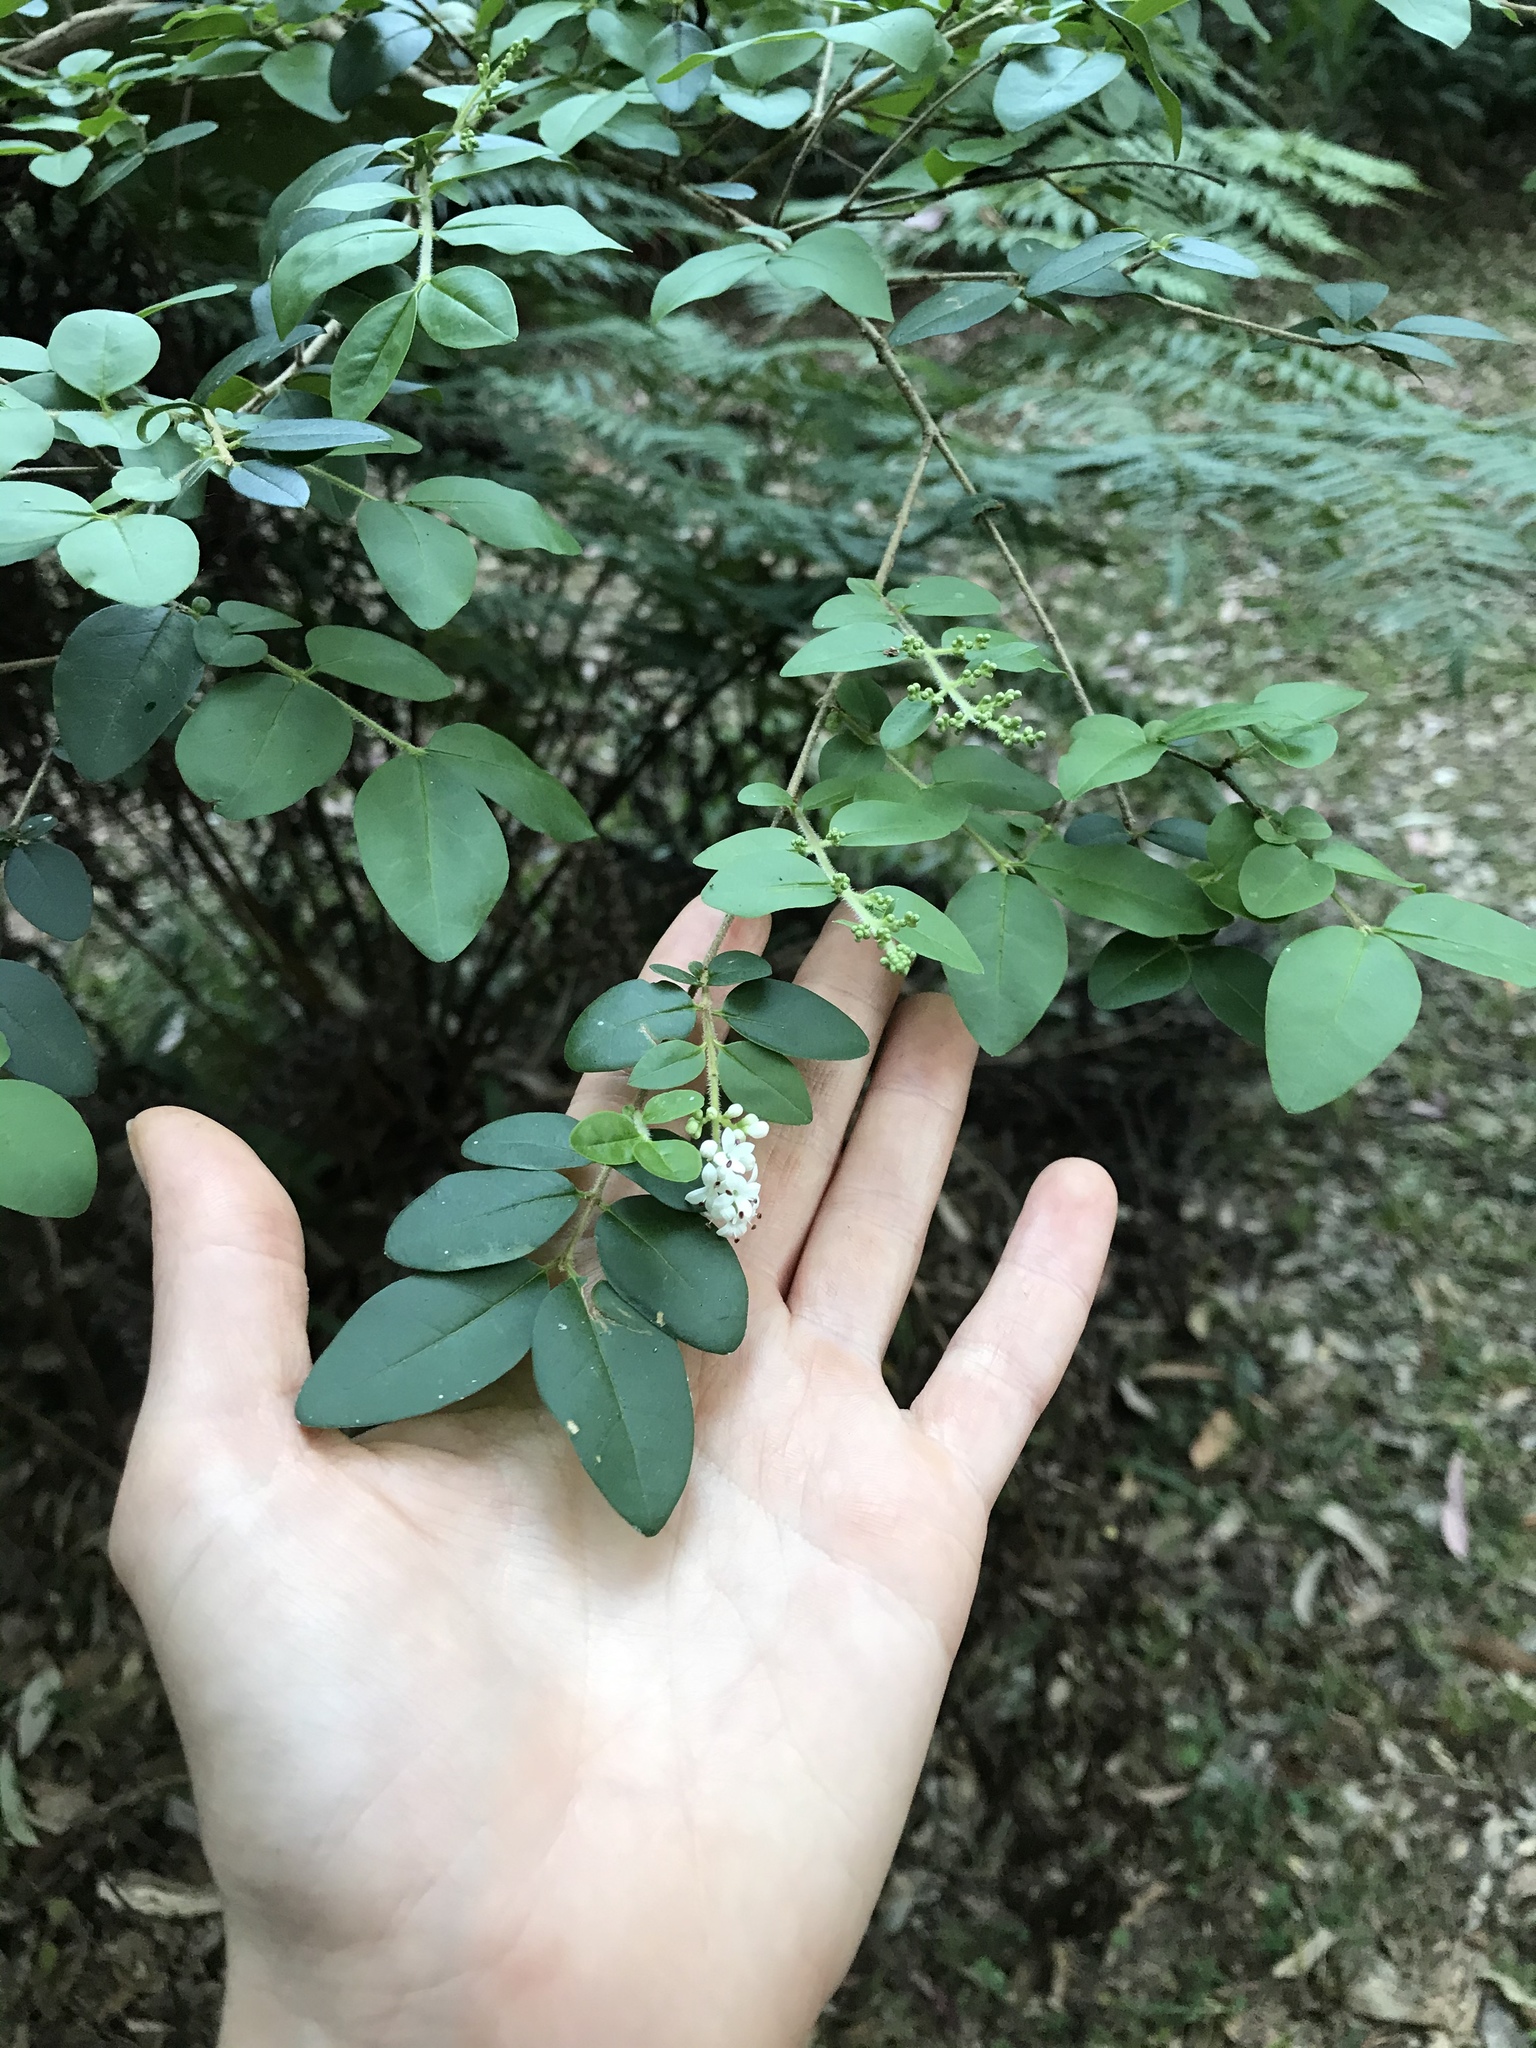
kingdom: Plantae
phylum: Tracheophyta
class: Magnoliopsida
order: Lamiales
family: Oleaceae
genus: Ligustrum
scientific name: Ligustrum sinense
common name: Chinese privet
